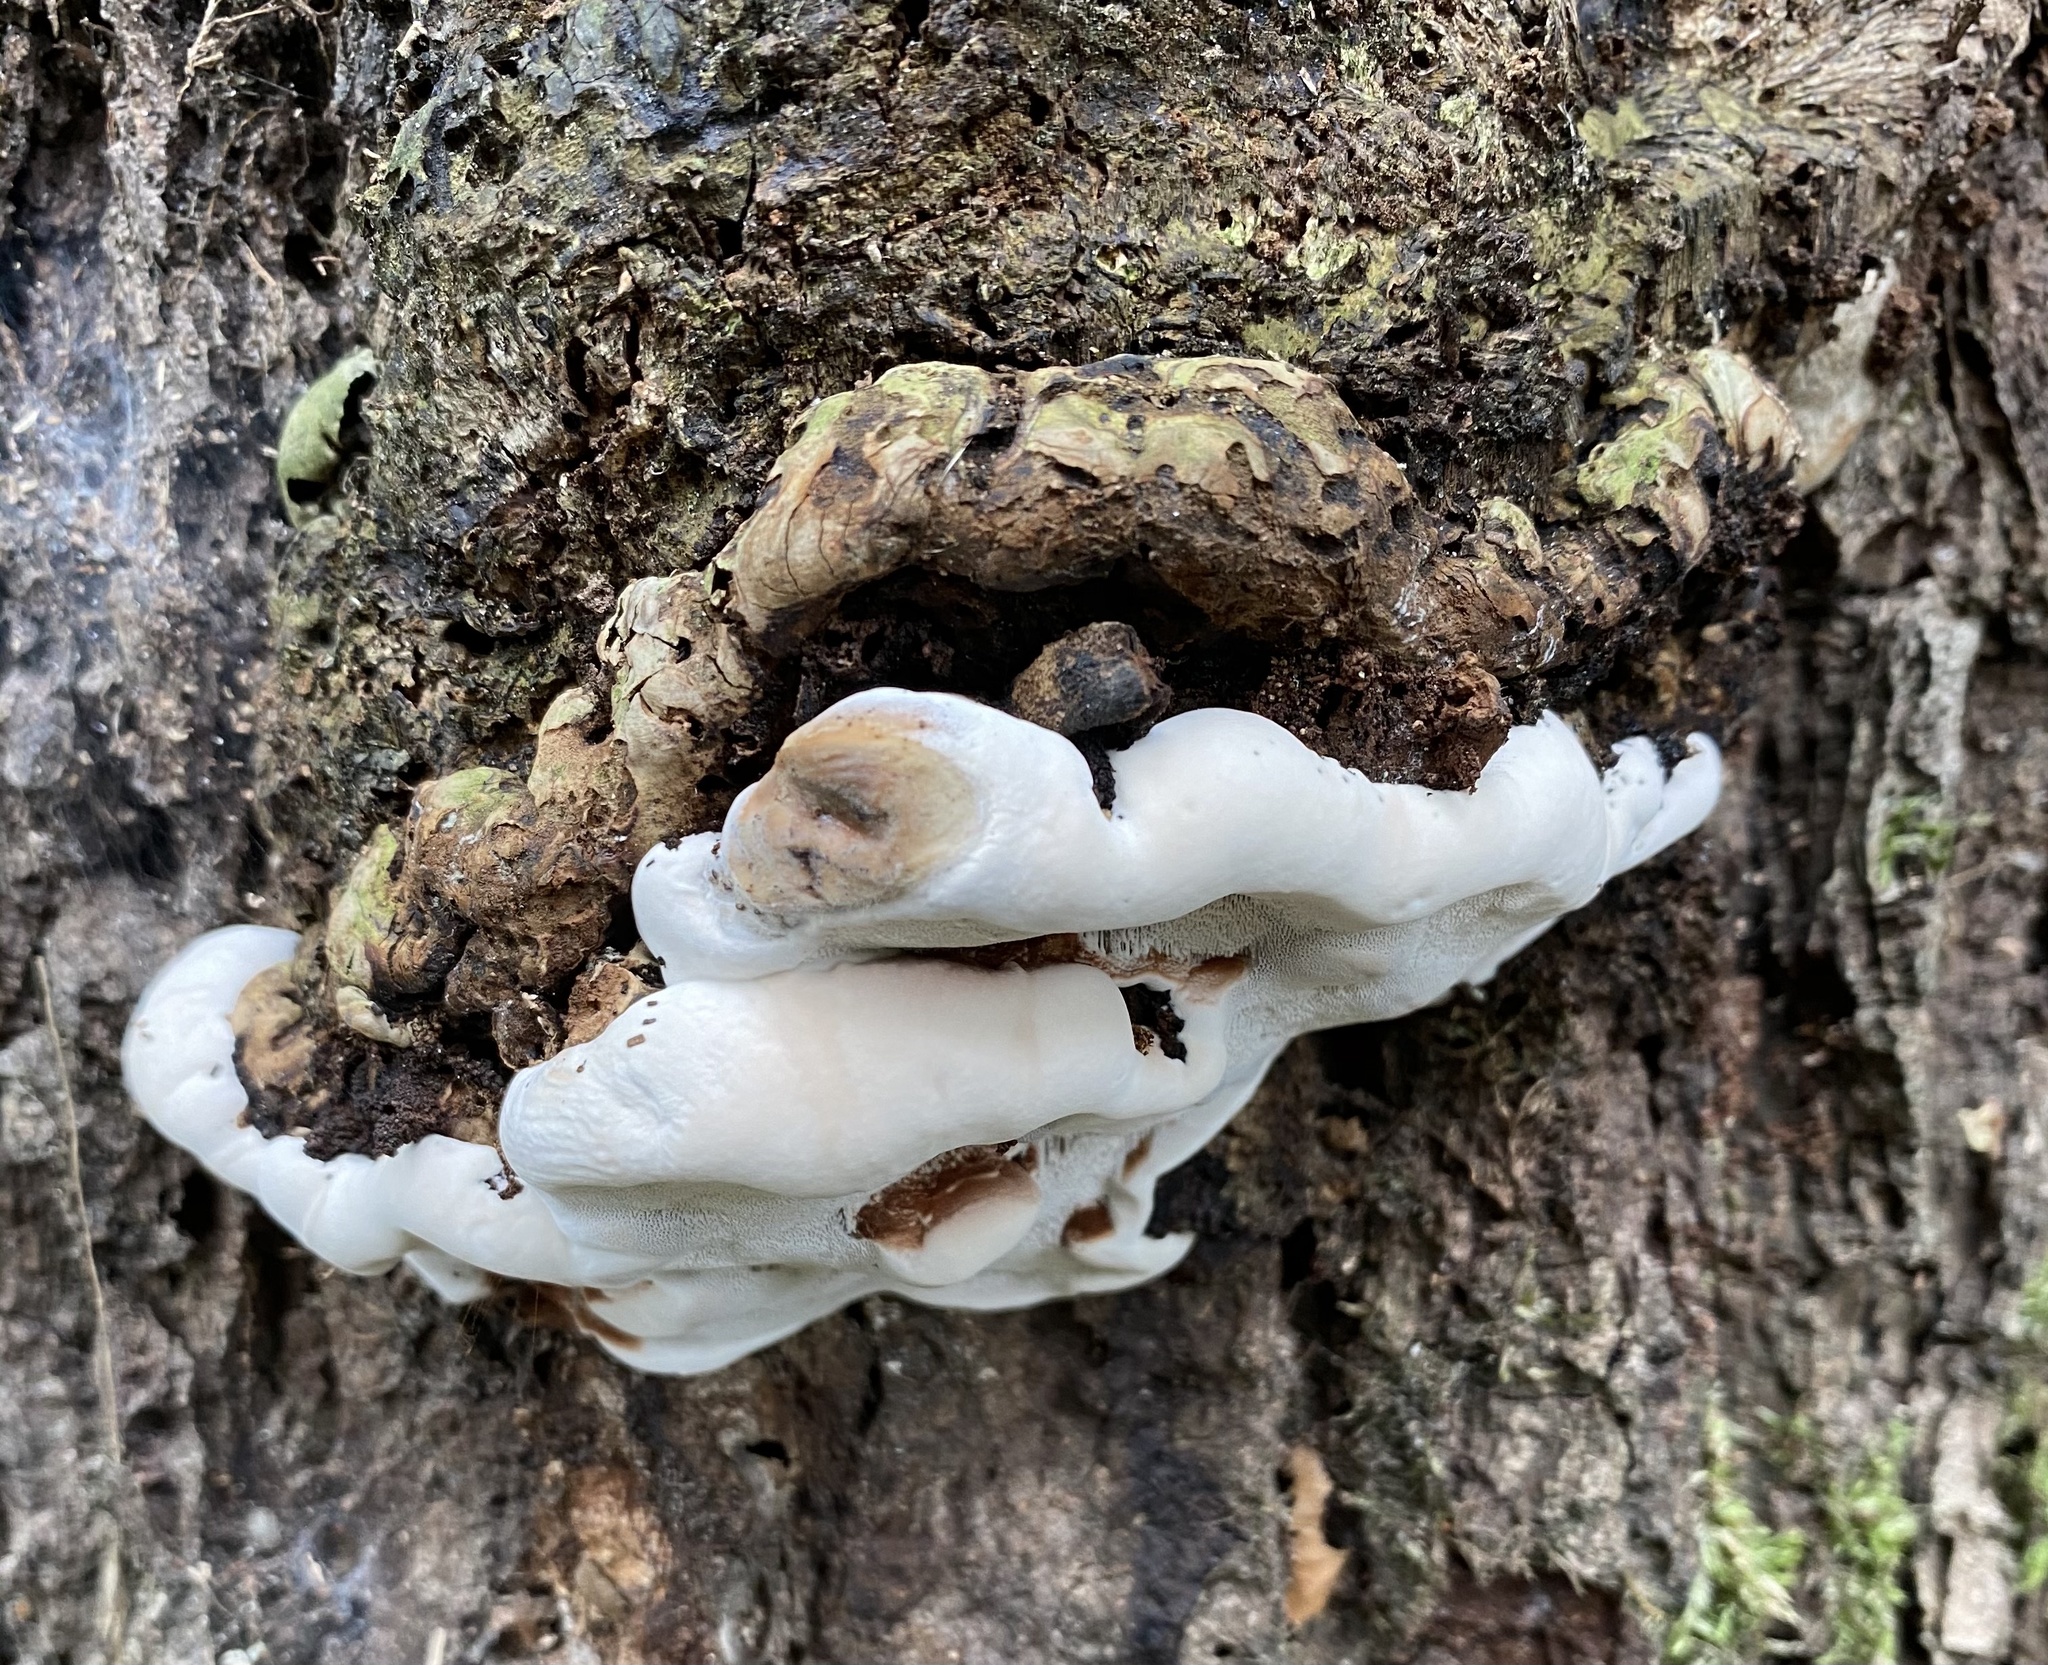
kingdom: Fungi
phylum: Basidiomycota
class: Agaricomycetes
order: Polyporales
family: Polyporaceae
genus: Ganoderma
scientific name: Ganoderma adspersum
